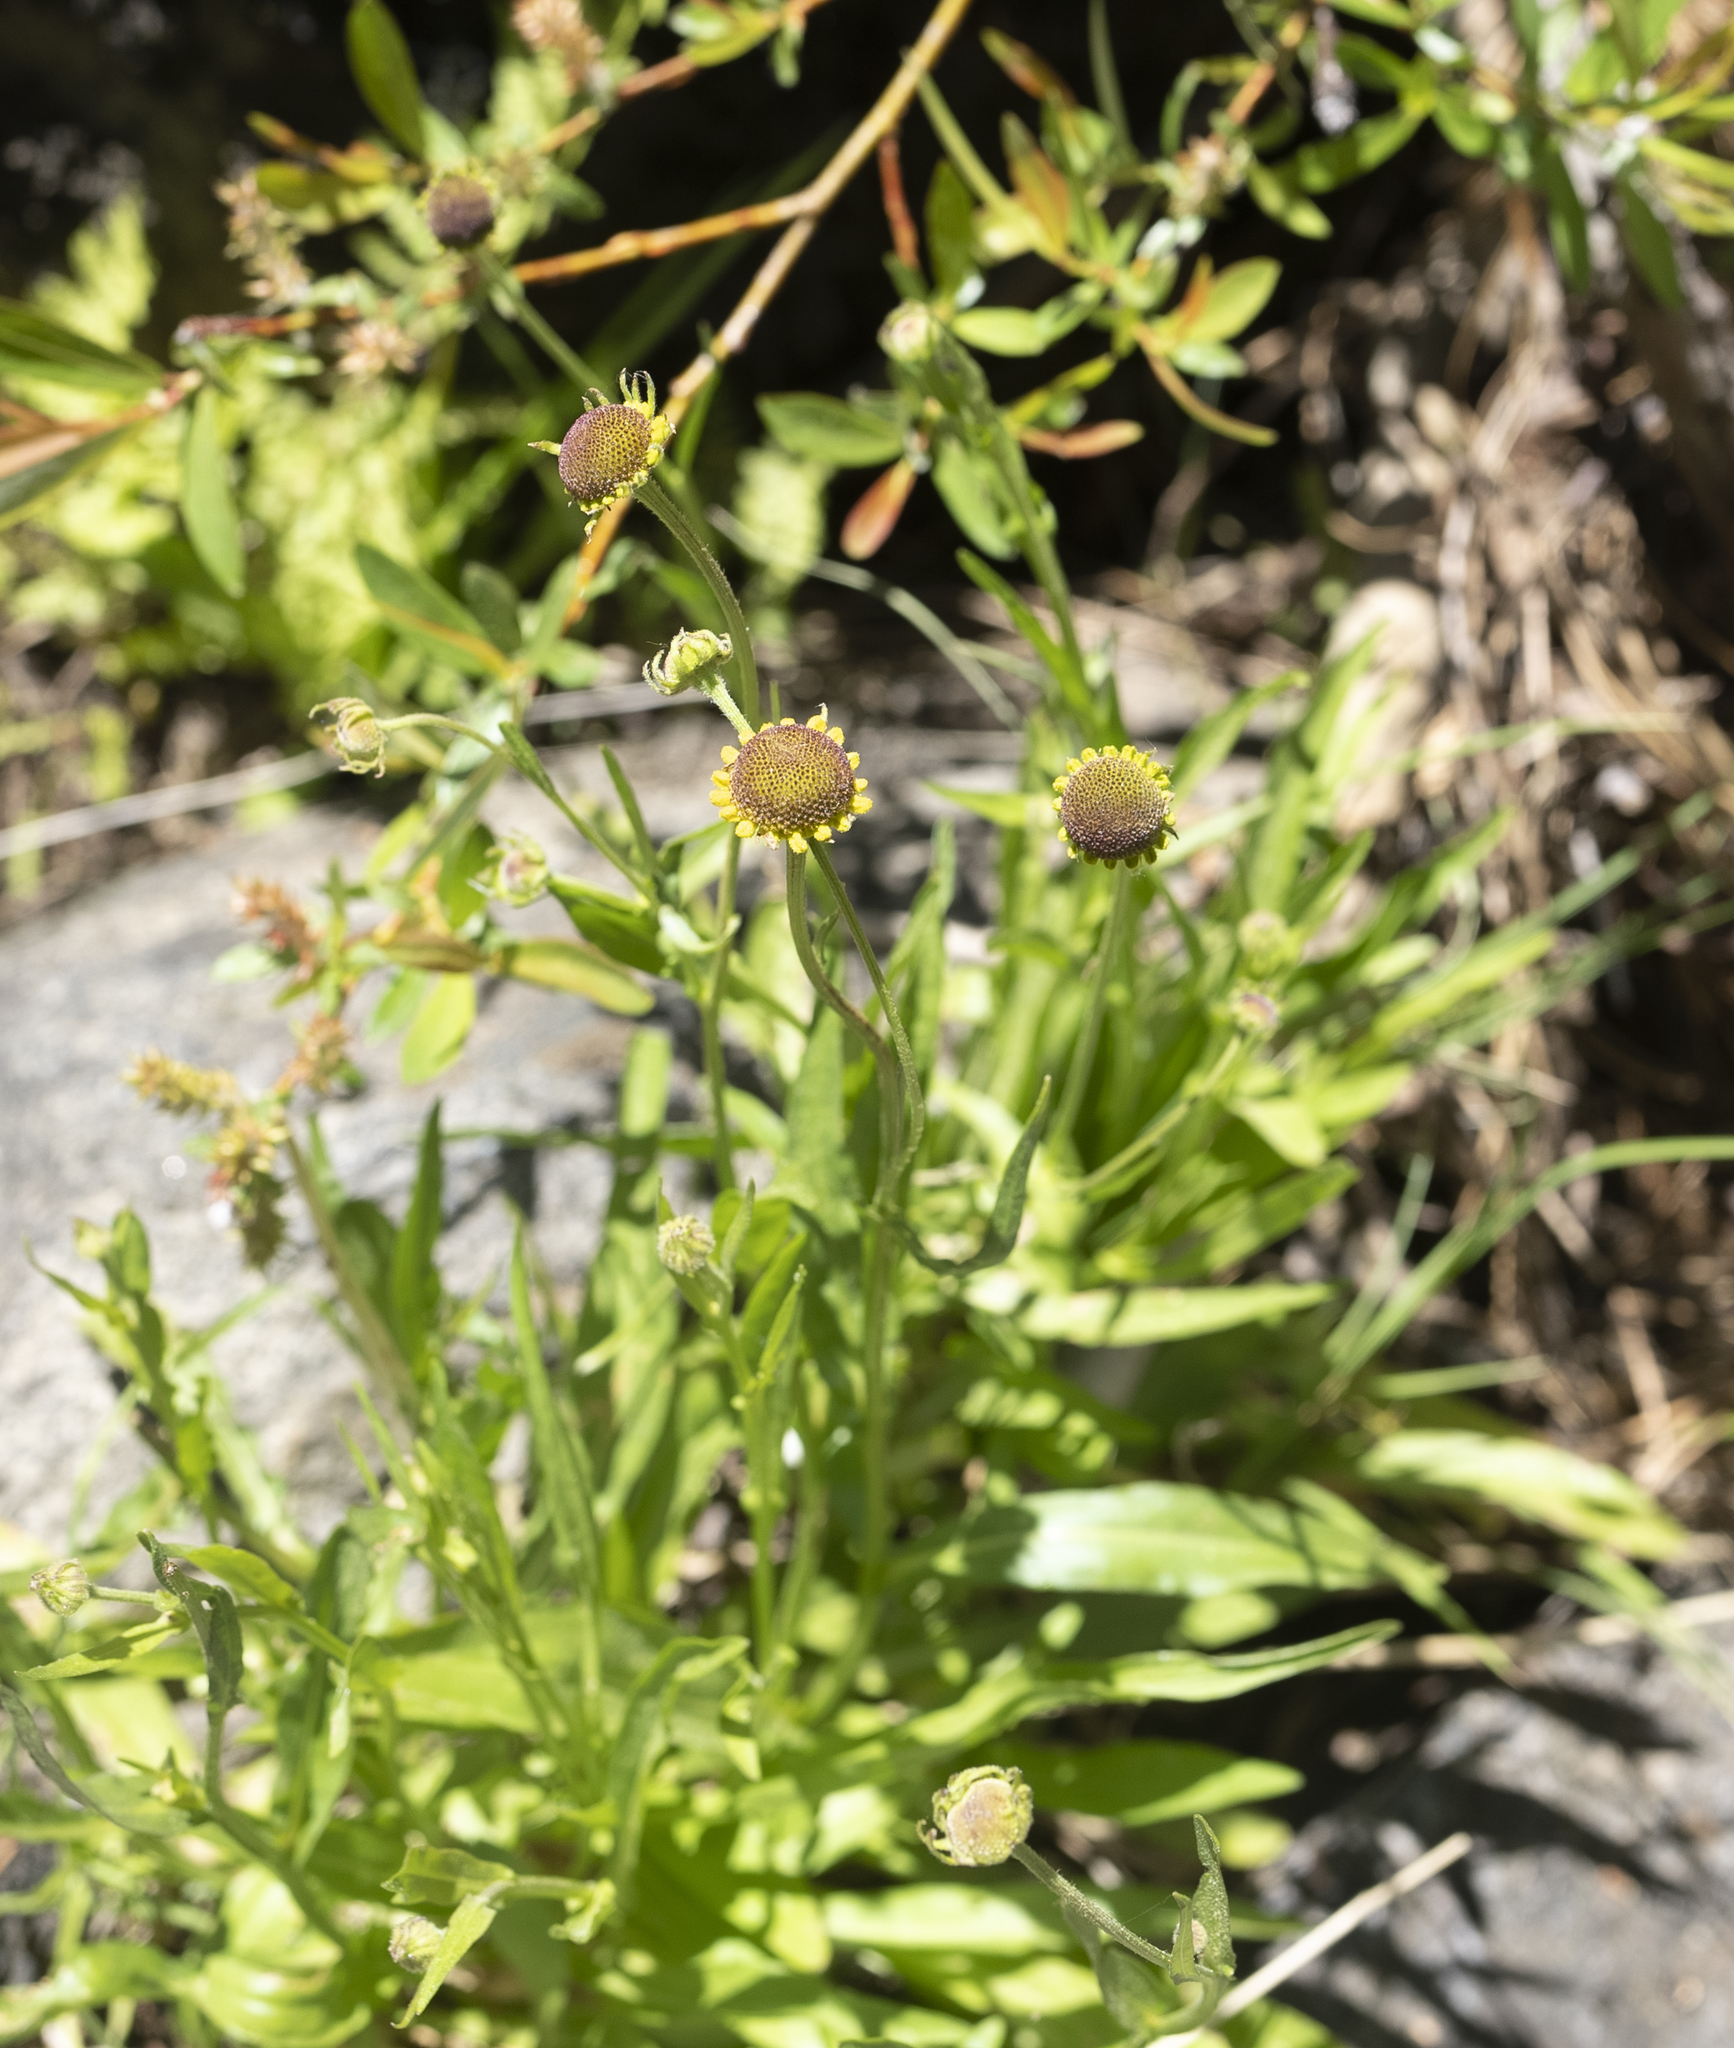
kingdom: Plantae
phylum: Tracheophyta
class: Magnoliopsida
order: Asterales
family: Asteraceae
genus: Helenium
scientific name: Helenium puberulum
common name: Sneezewort
